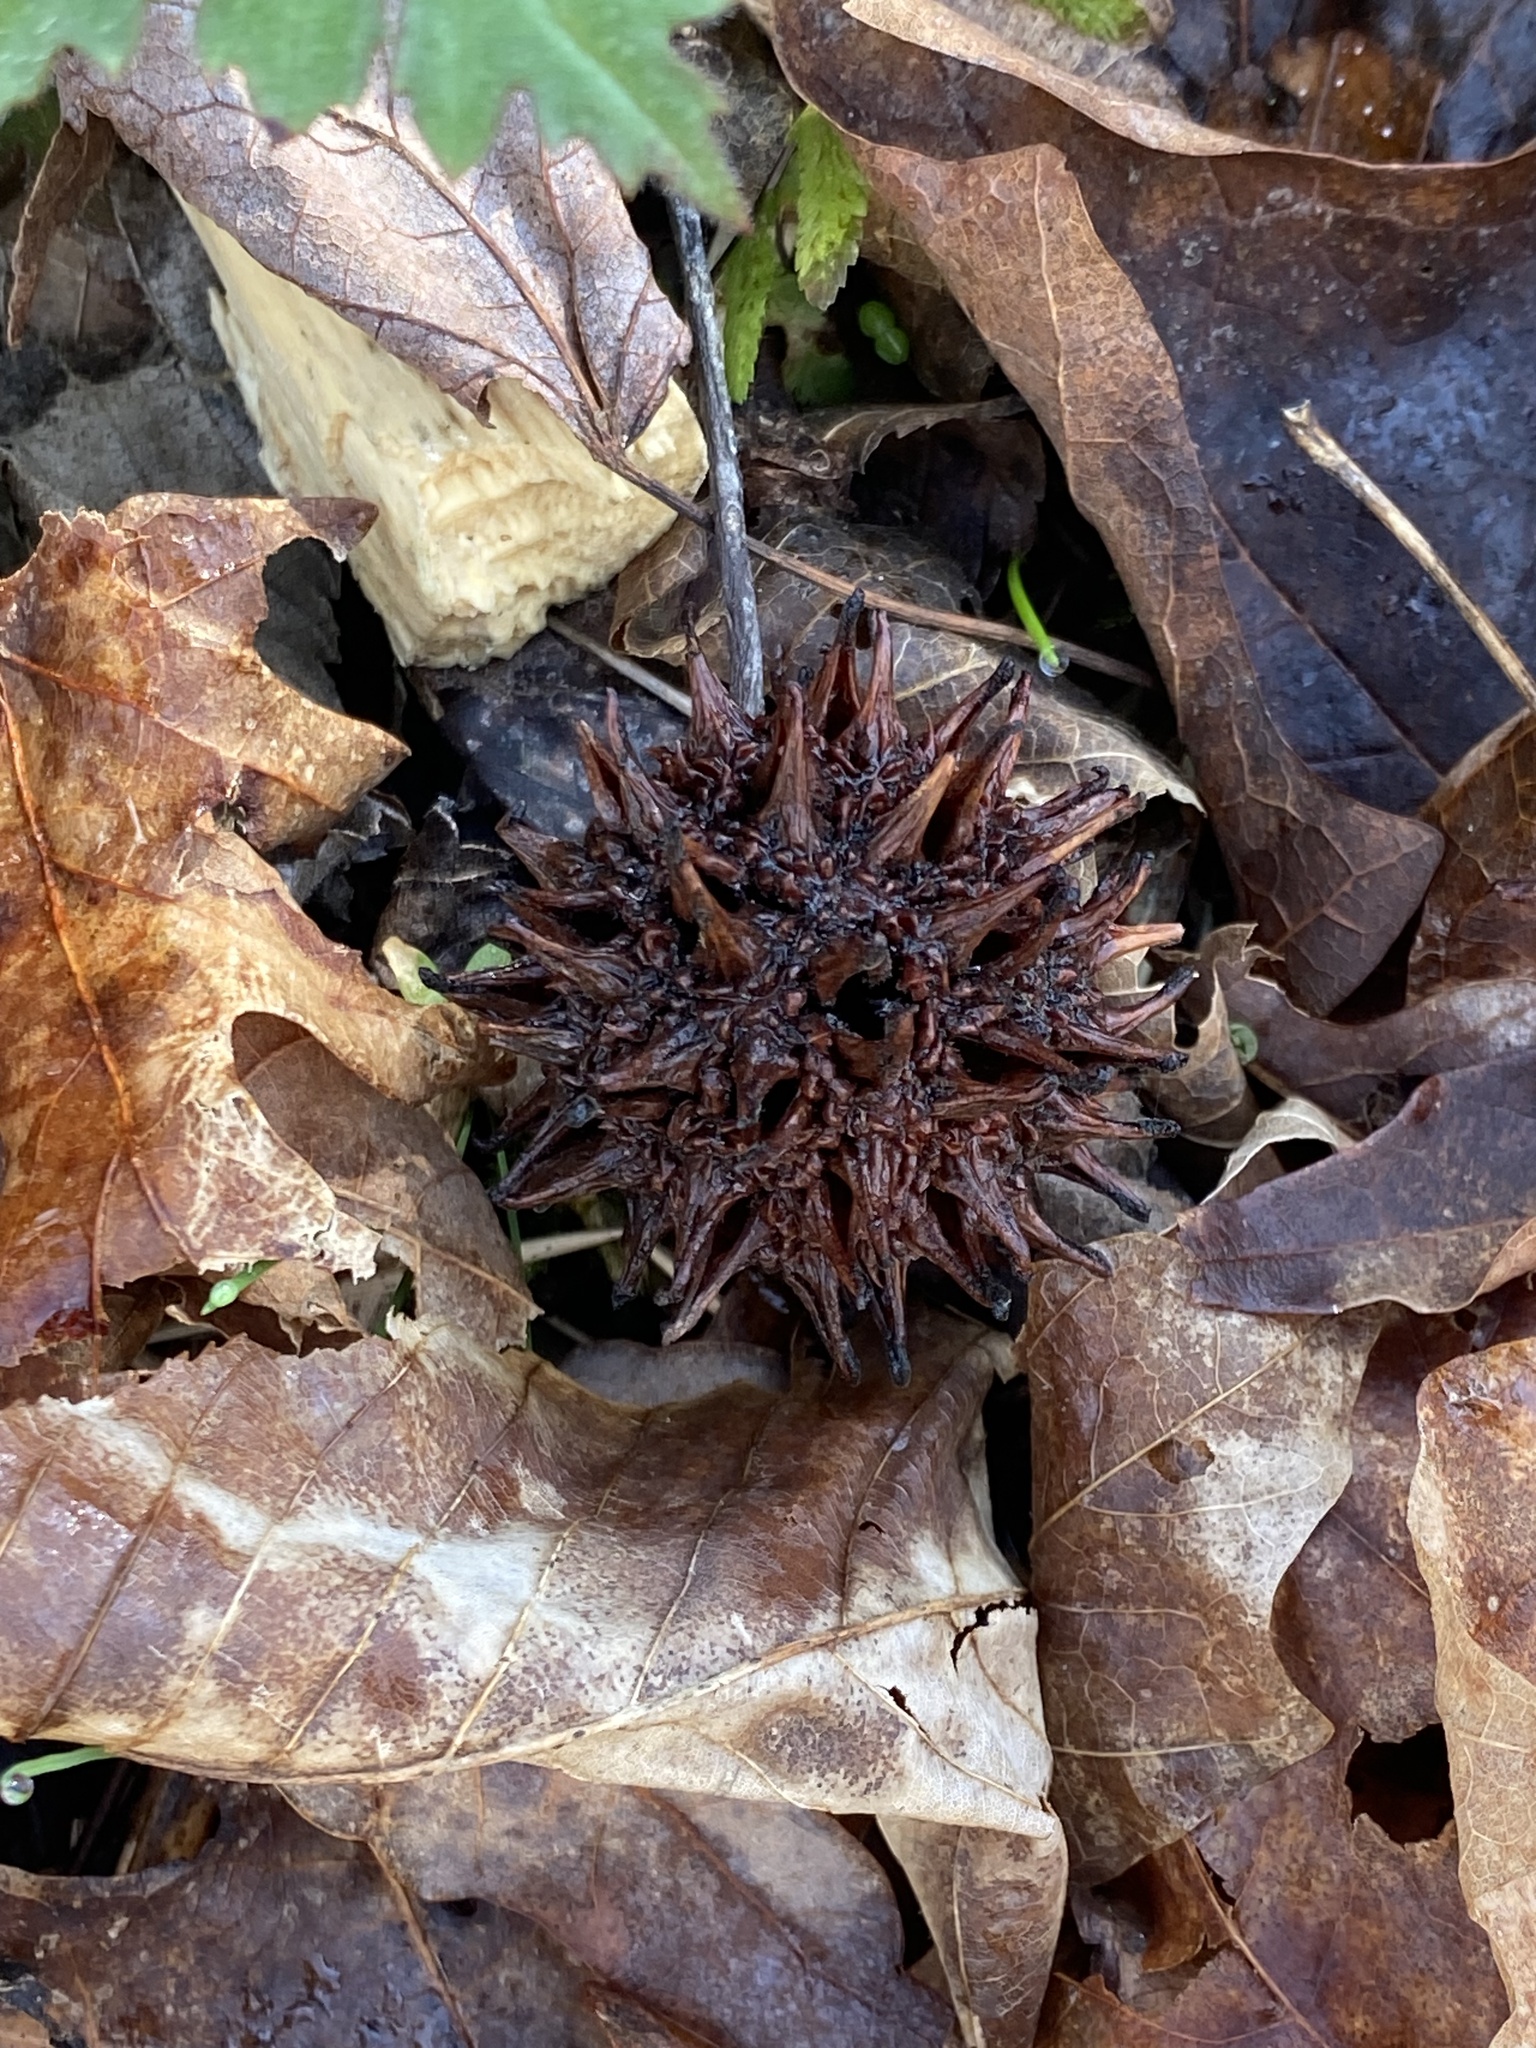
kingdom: Plantae
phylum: Tracheophyta
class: Magnoliopsida
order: Saxifragales
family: Altingiaceae
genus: Liquidambar
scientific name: Liquidambar styraciflua
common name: Sweet gum
